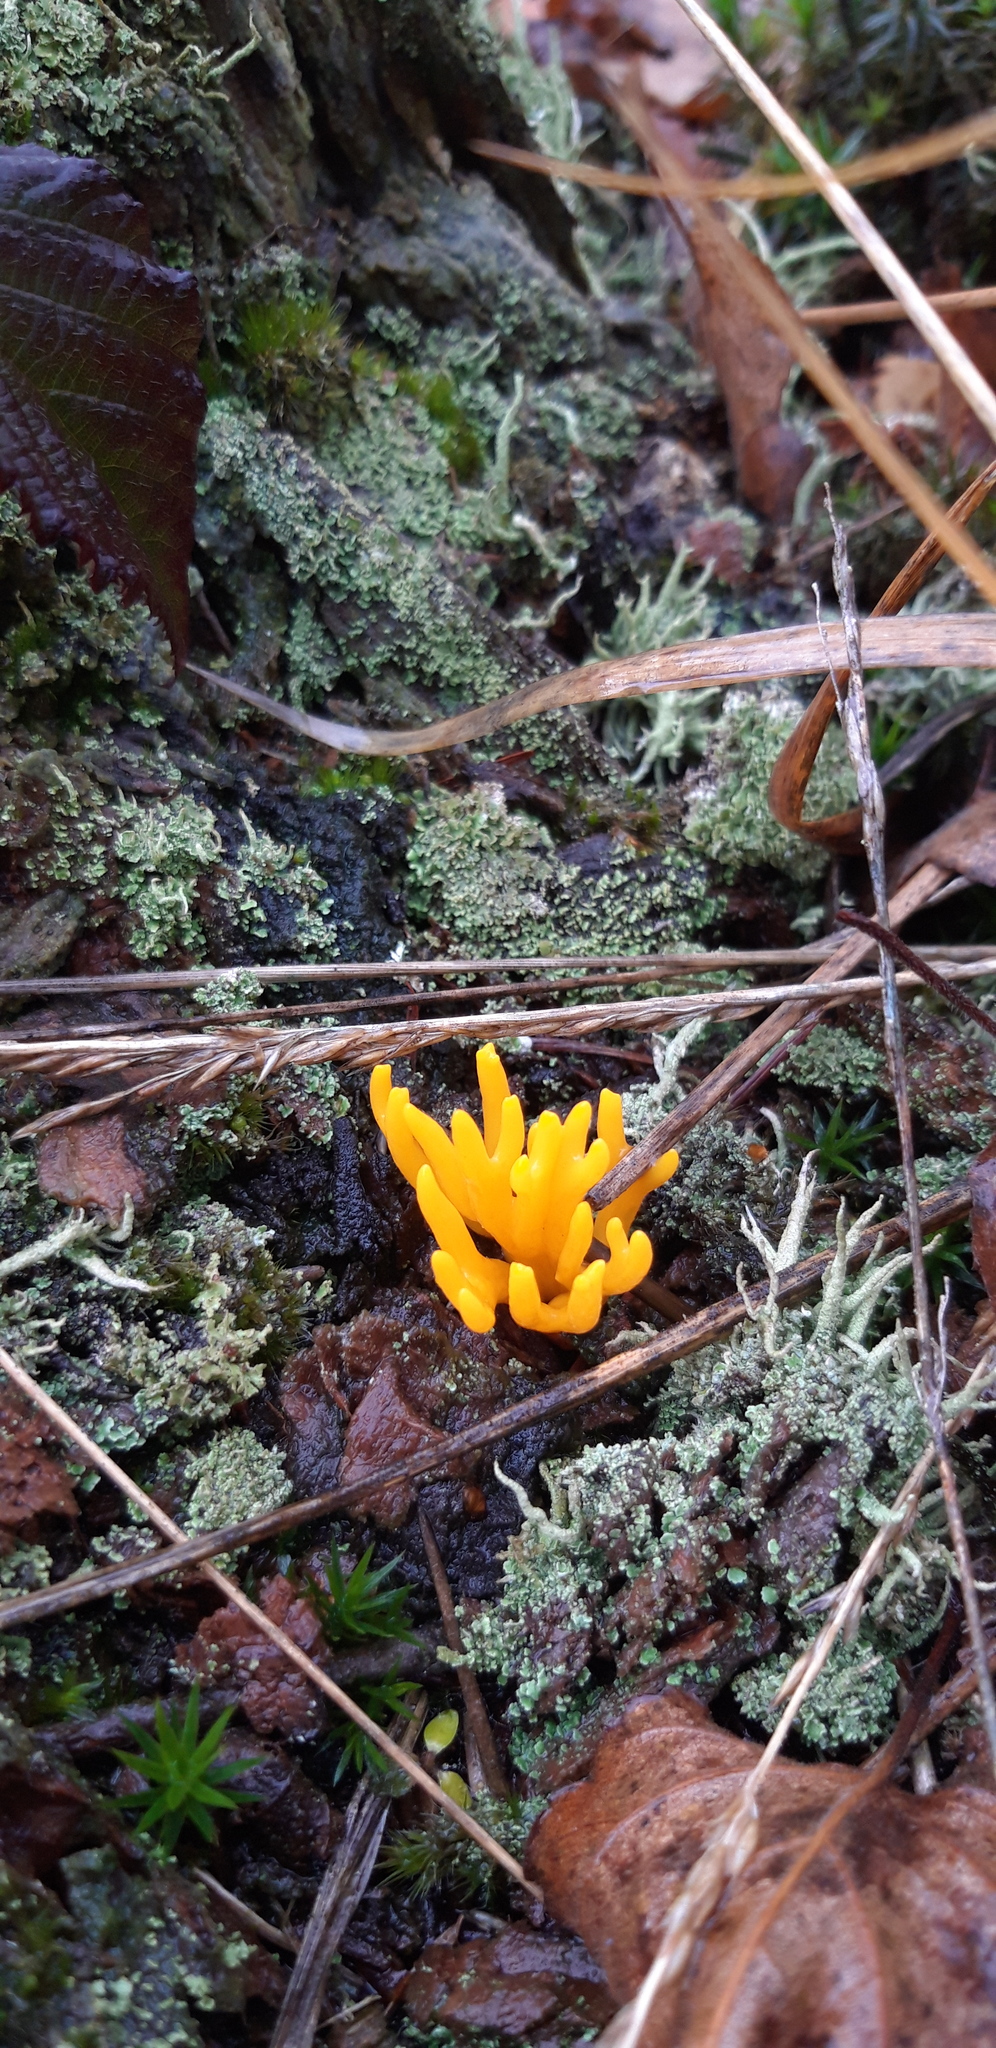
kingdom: Fungi
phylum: Basidiomycota
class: Dacrymycetes
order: Dacrymycetales
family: Dacrymycetaceae
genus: Calocera
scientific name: Calocera viscosa
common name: Yellow stagshorn
